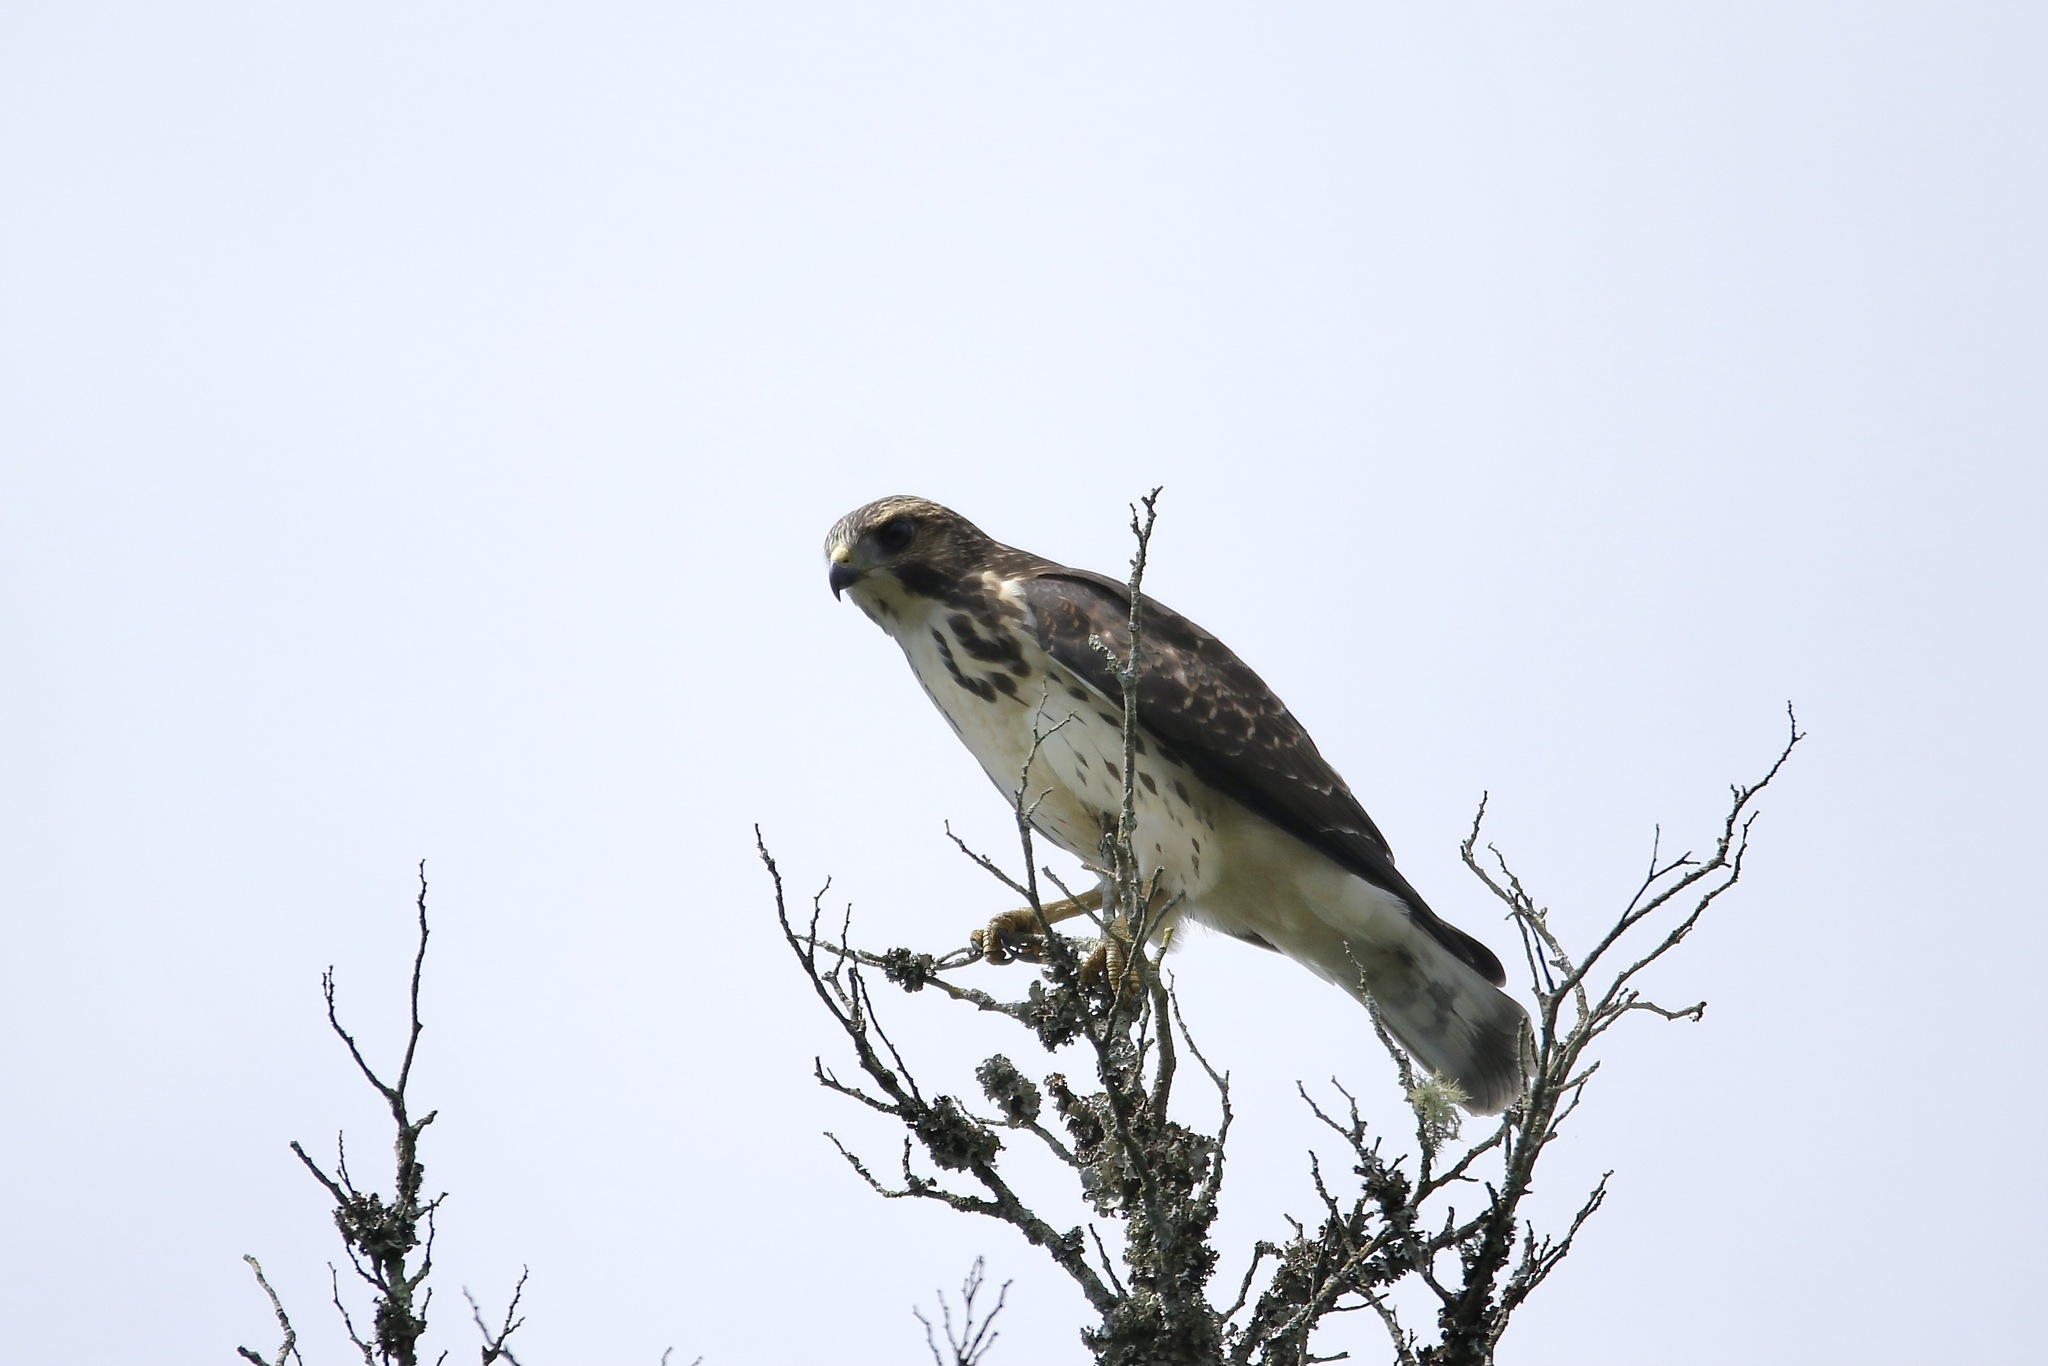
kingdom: Animalia
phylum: Chordata
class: Aves
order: Accipitriformes
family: Accipitridae
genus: Buteo
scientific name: Buteo platypterus
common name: Broad-winged hawk
